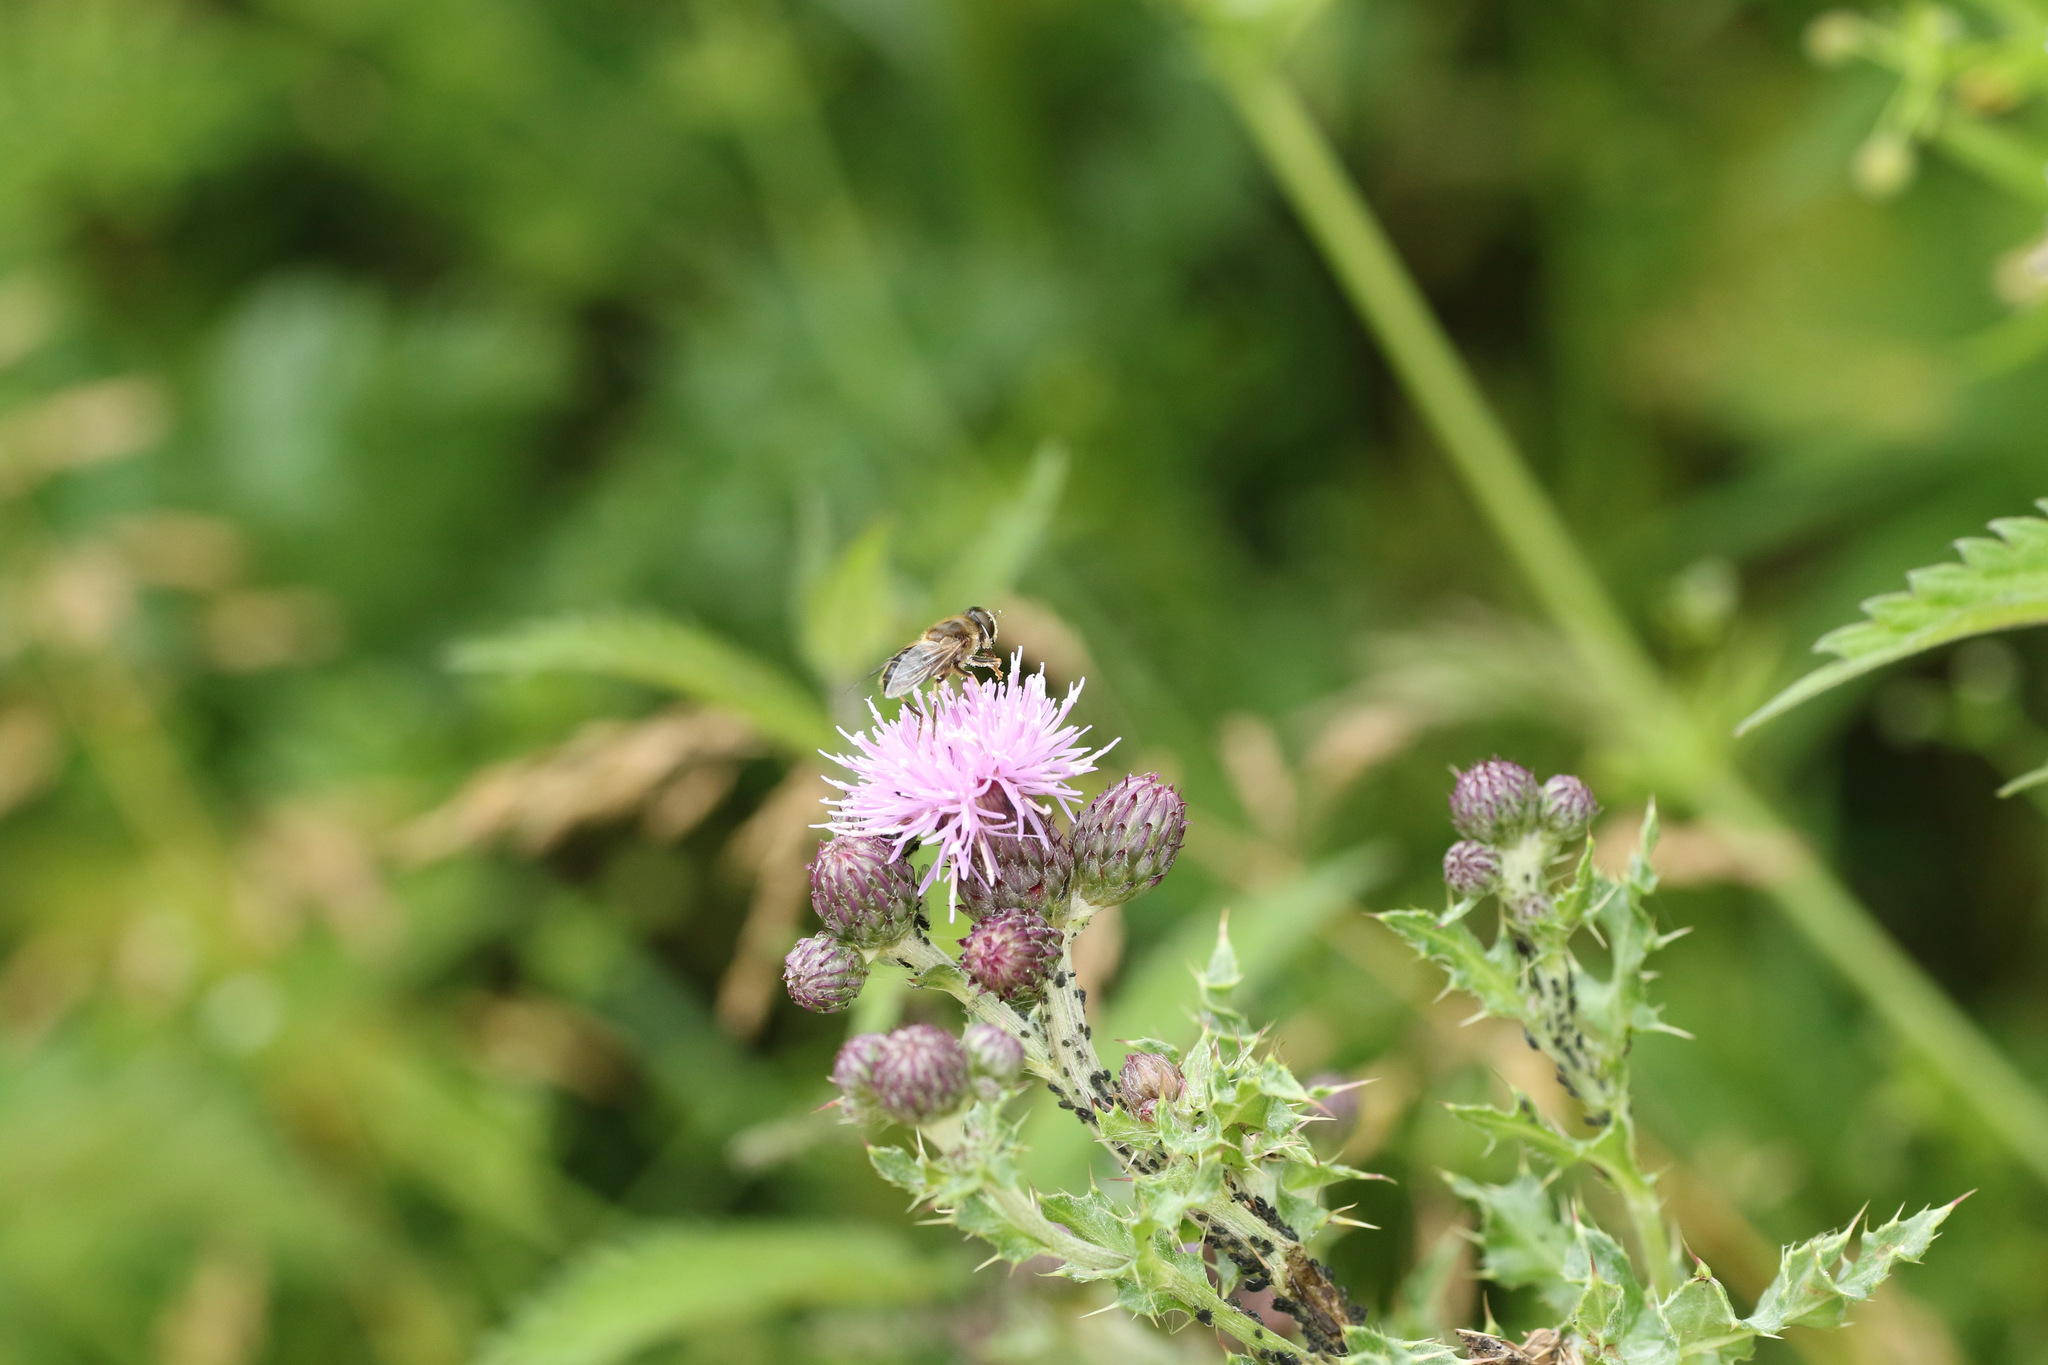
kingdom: Plantae
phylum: Tracheophyta
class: Magnoliopsida
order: Asterales
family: Asteraceae
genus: Cirsium
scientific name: Cirsium arvense
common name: Creeping thistle
